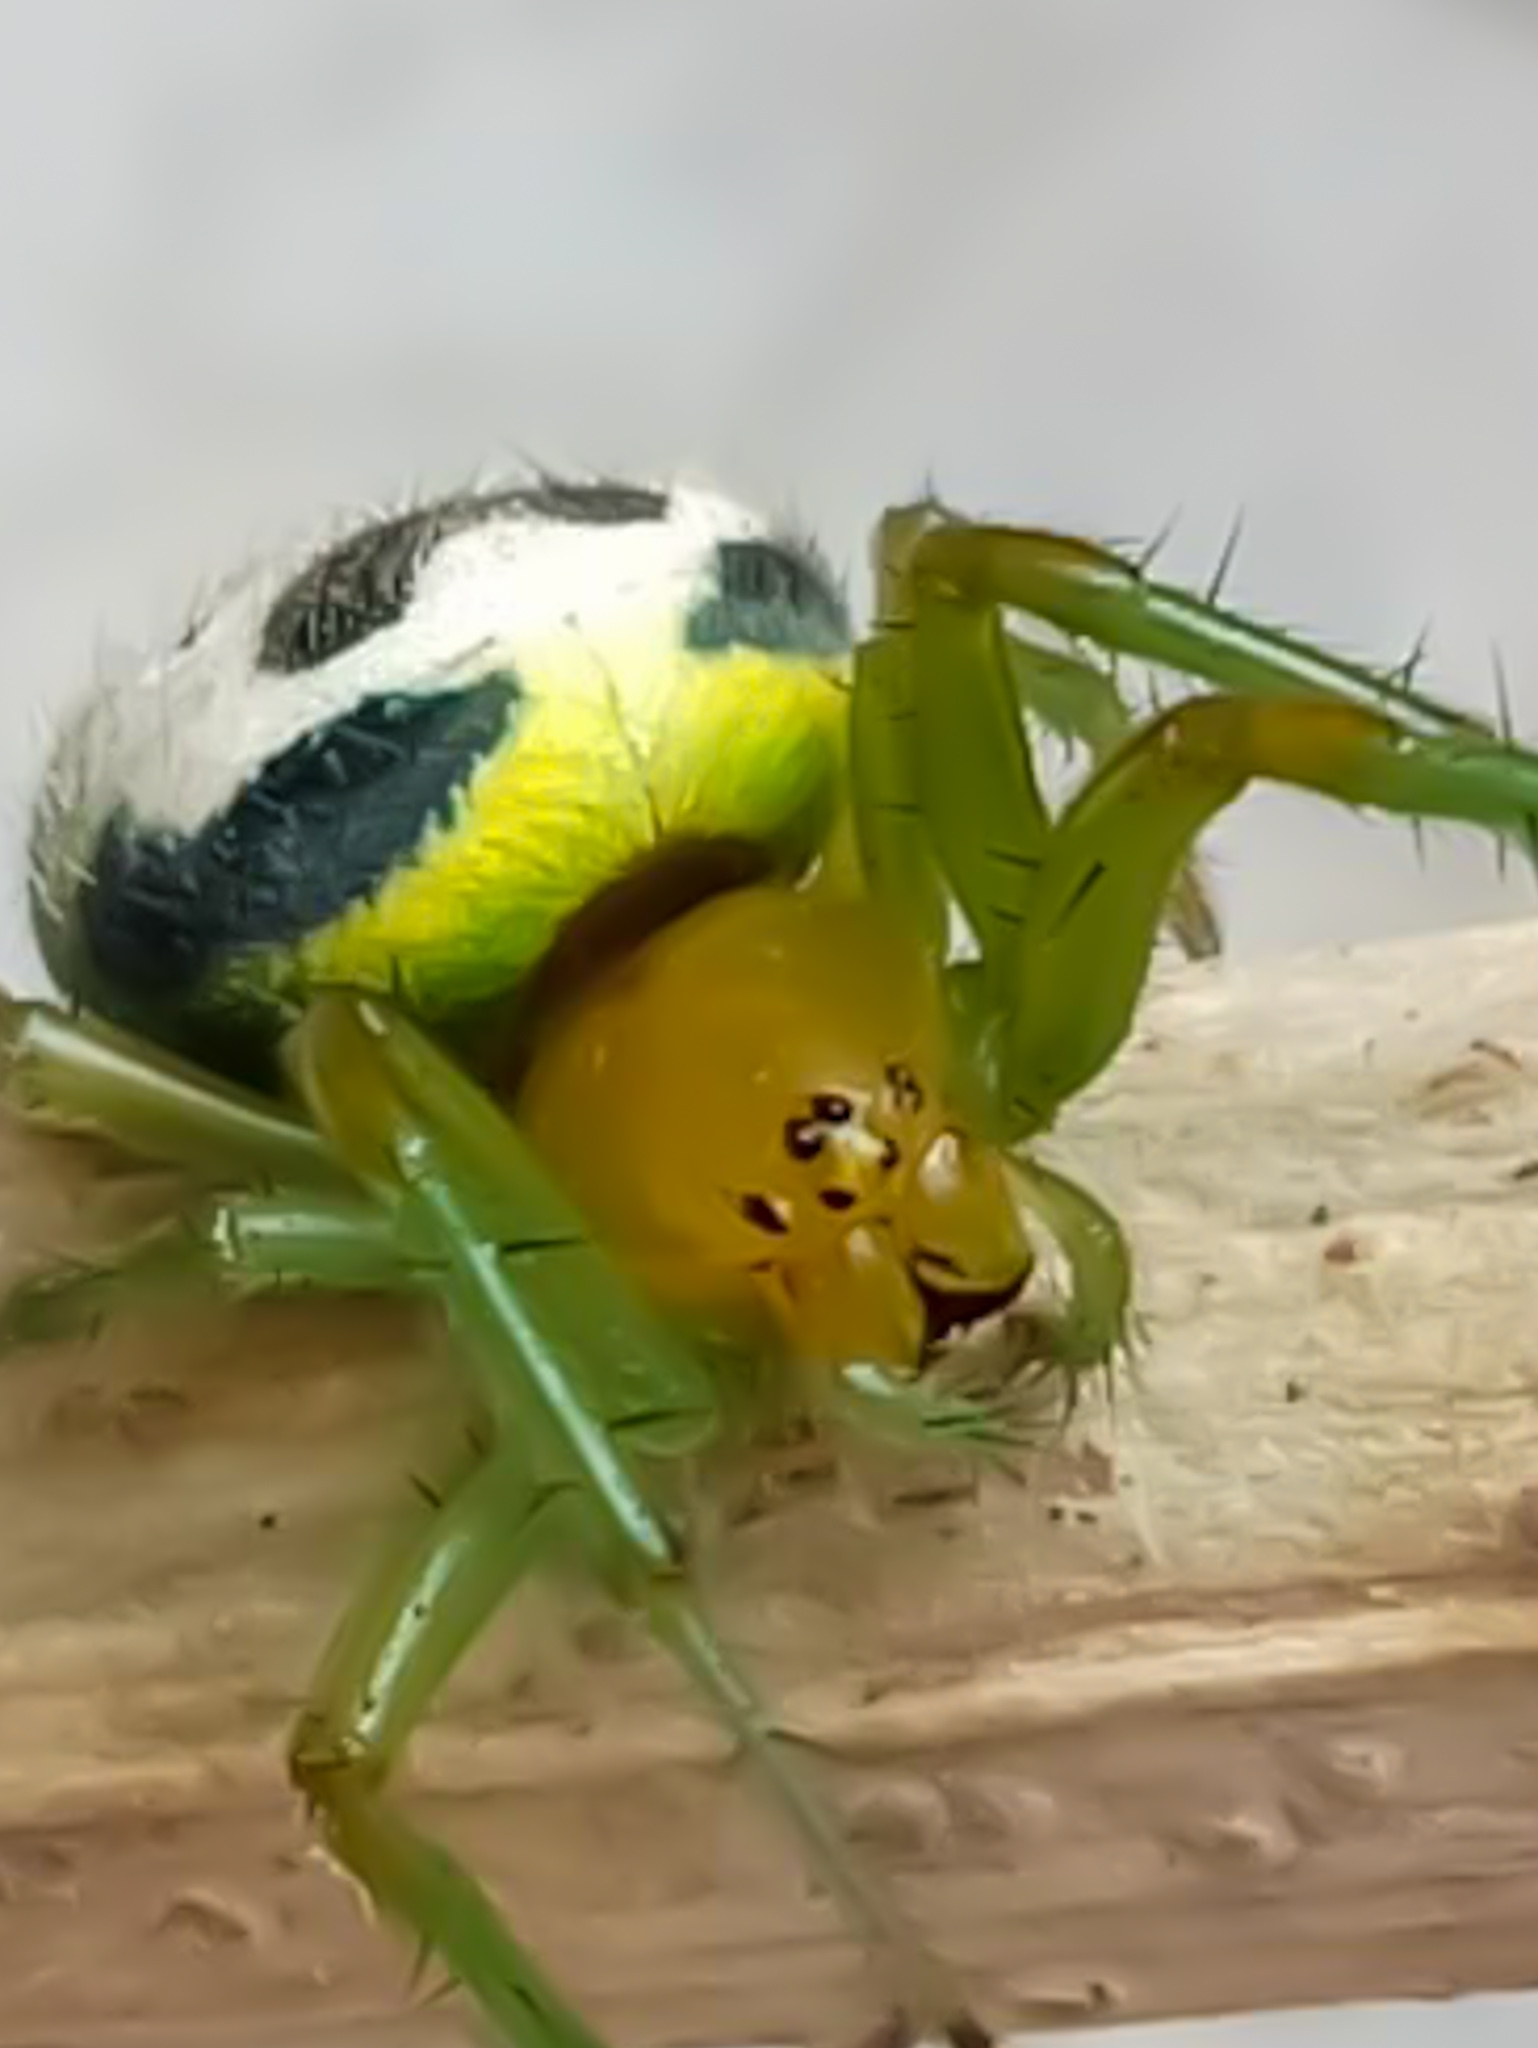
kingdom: Animalia
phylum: Arthropoda
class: Arachnida
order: Araneae
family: Araneidae
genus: Bijoaraneus
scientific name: Bijoaraneus mitificus
